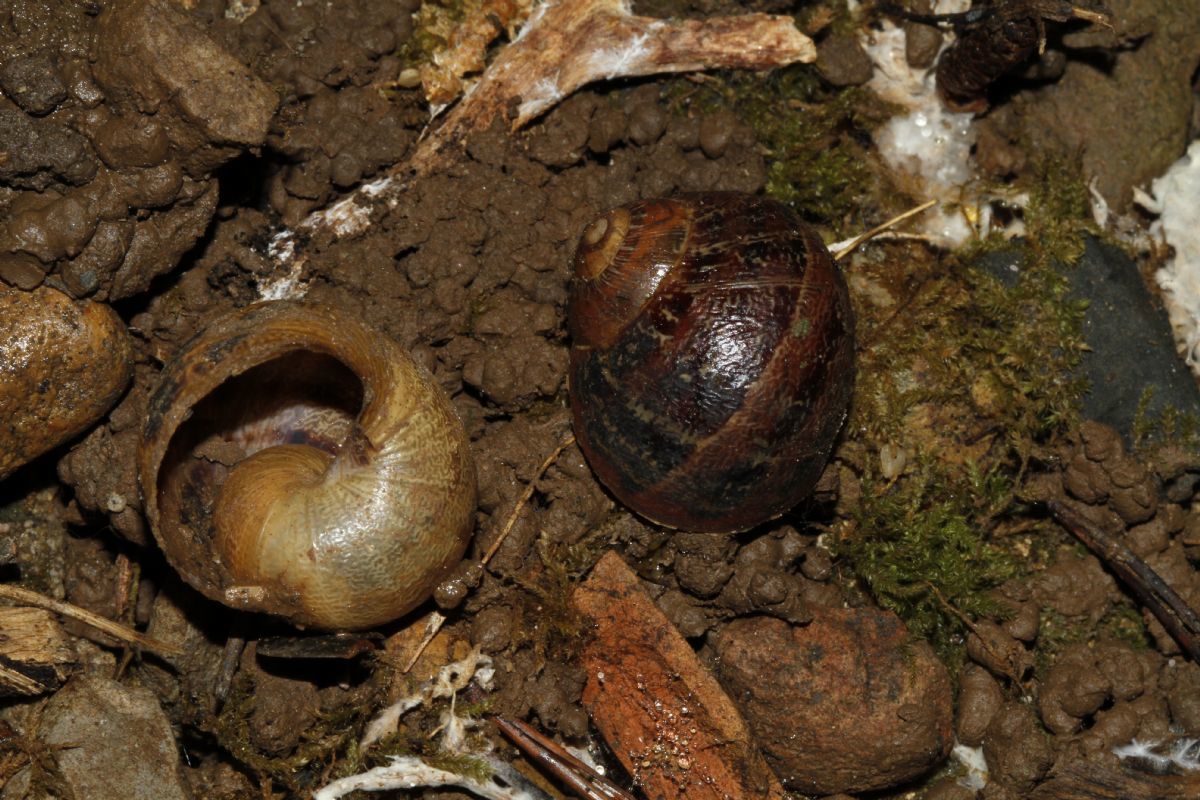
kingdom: Animalia
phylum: Mollusca
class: Gastropoda
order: Stylommatophora
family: Helicidae
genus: Cornu
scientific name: Cornu aspersum
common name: Brown garden snail
